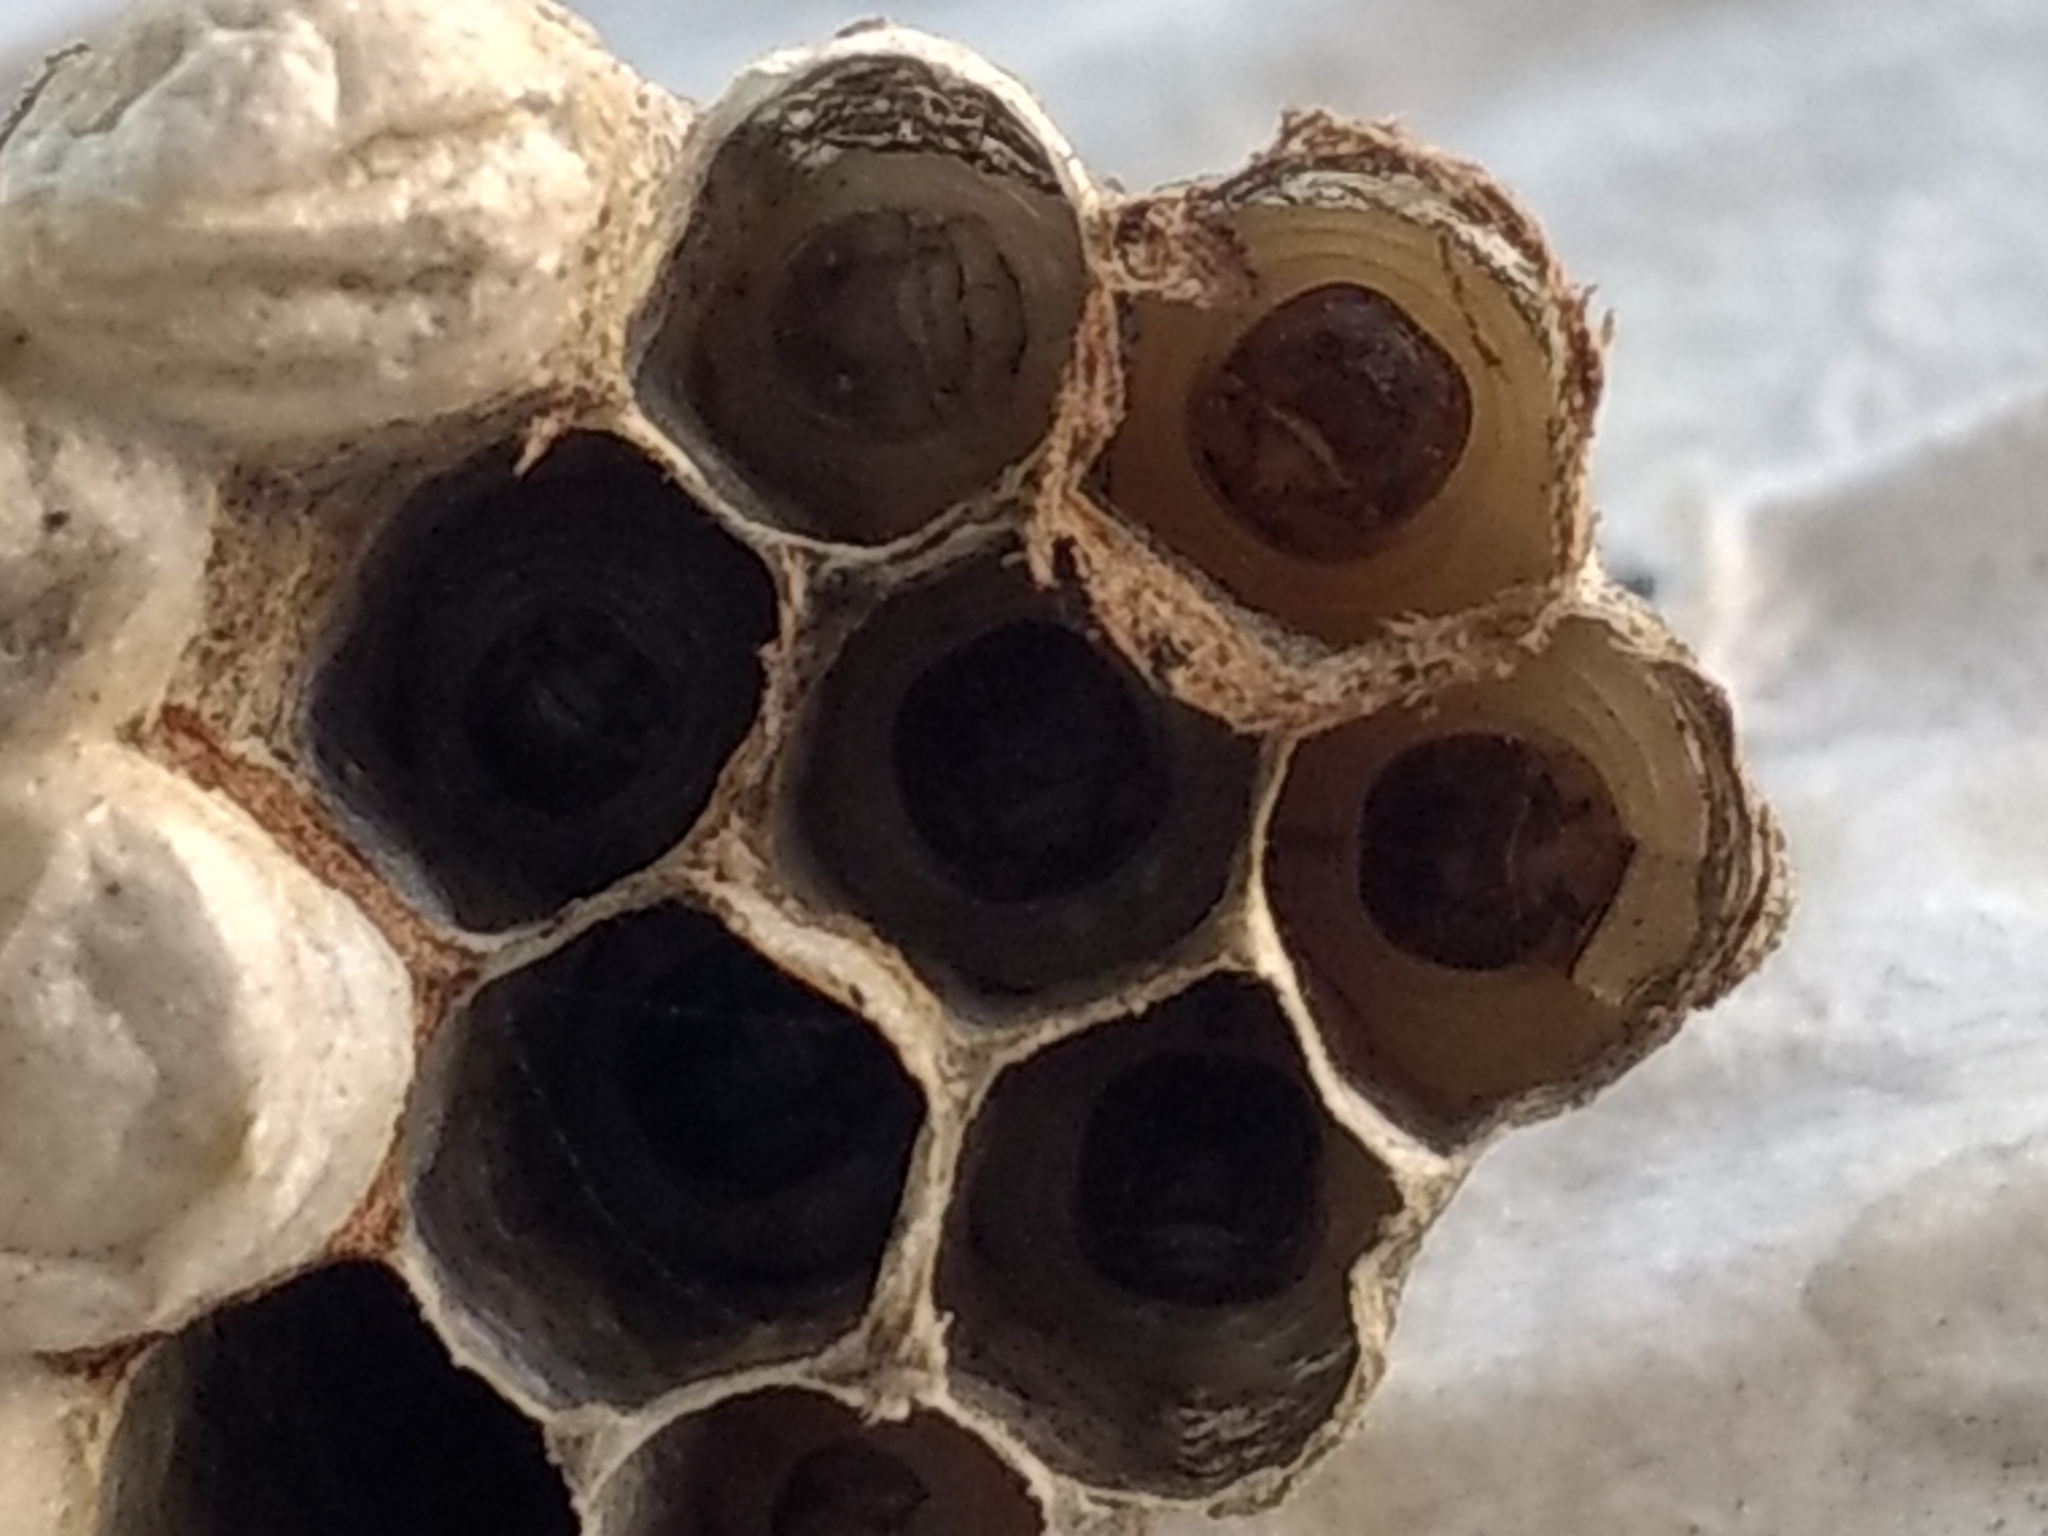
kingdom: Animalia
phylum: Arthropoda
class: Insecta
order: Hymenoptera
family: Eumenidae
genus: Polistes
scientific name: Polistes exclamans
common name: Paper wasp
